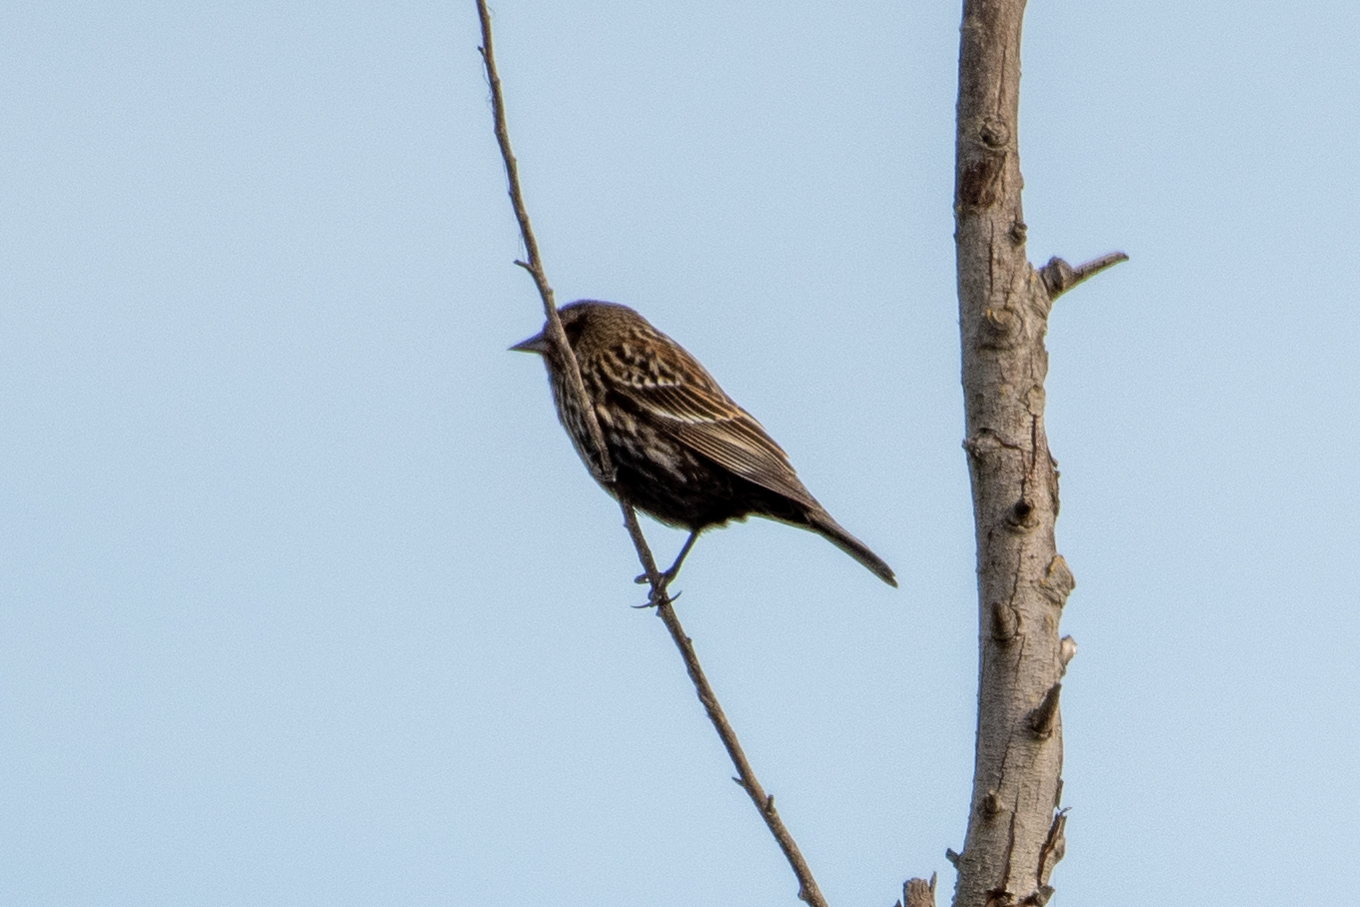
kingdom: Animalia
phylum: Chordata
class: Aves
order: Passeriformes
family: Icteridae
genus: Agelaius
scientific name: Agelaius phoeniceus
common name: Red-winged blackbird
